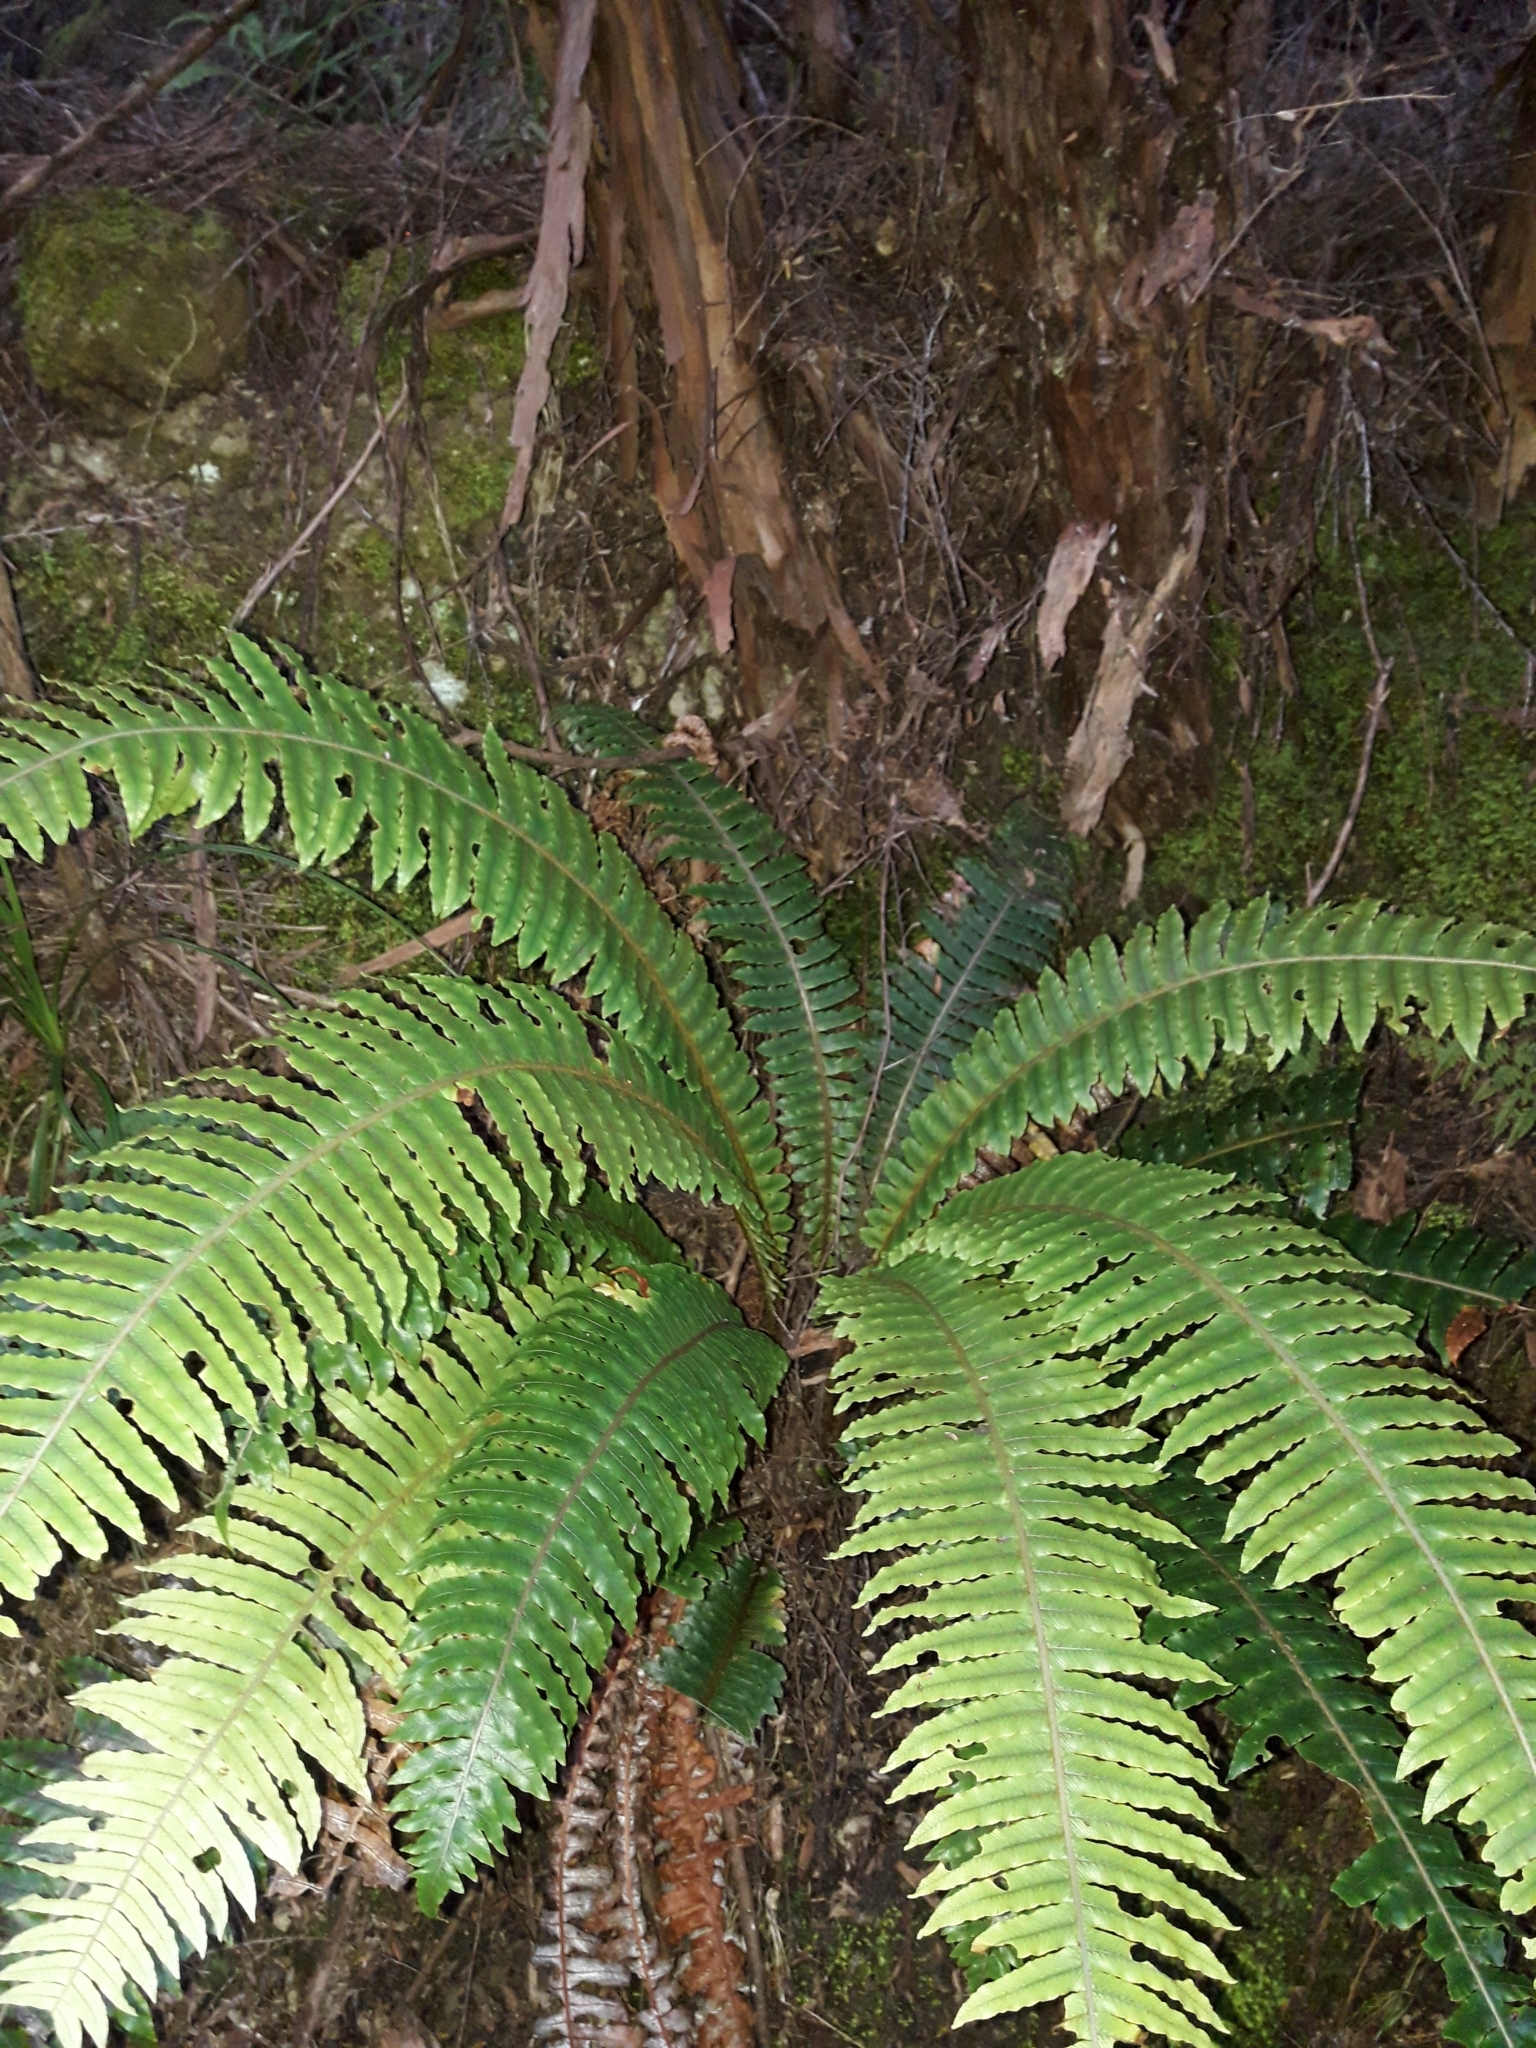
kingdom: Plantae
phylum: Tracheophyta
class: Polypodiopsida
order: Polypodiales
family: Blechnaceae
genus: Lomaria
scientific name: Lomaria discolor
